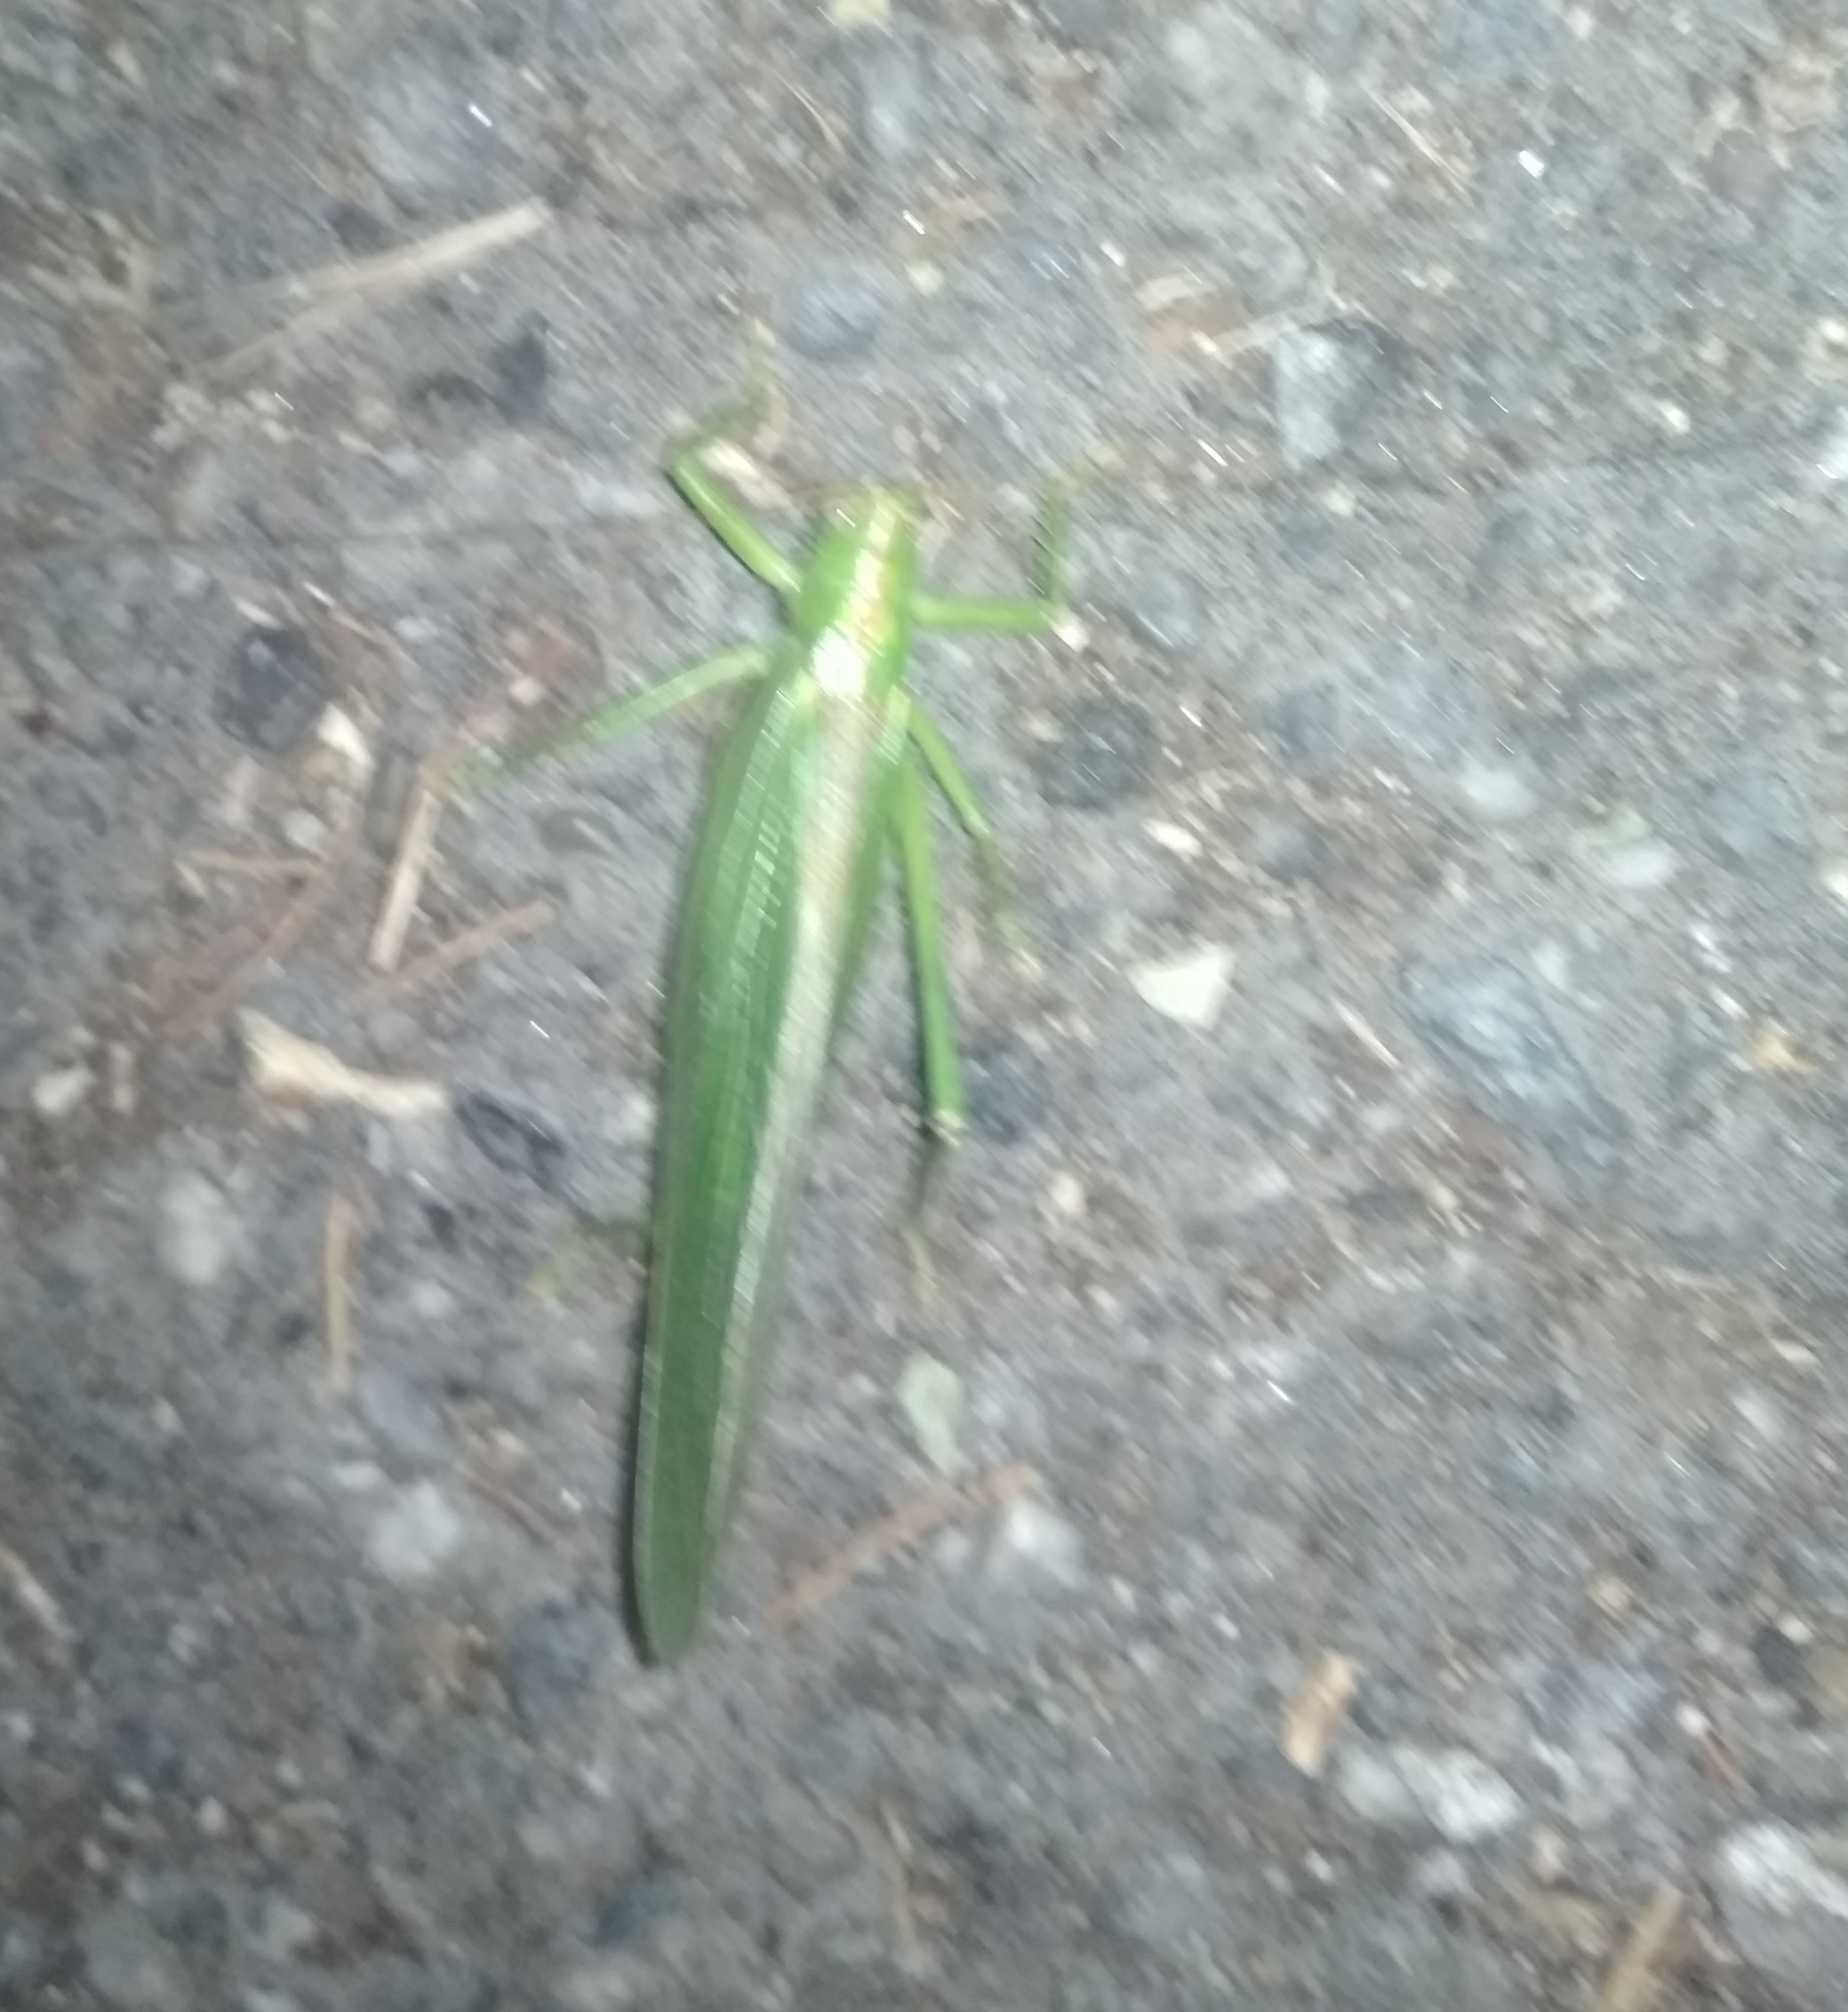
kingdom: Animalia
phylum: Arthropoda
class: Insecta
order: Orthoptera
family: Tettigoniidae
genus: Tettigonia
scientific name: Tettigonia viridissima
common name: Great green bush-cricket
